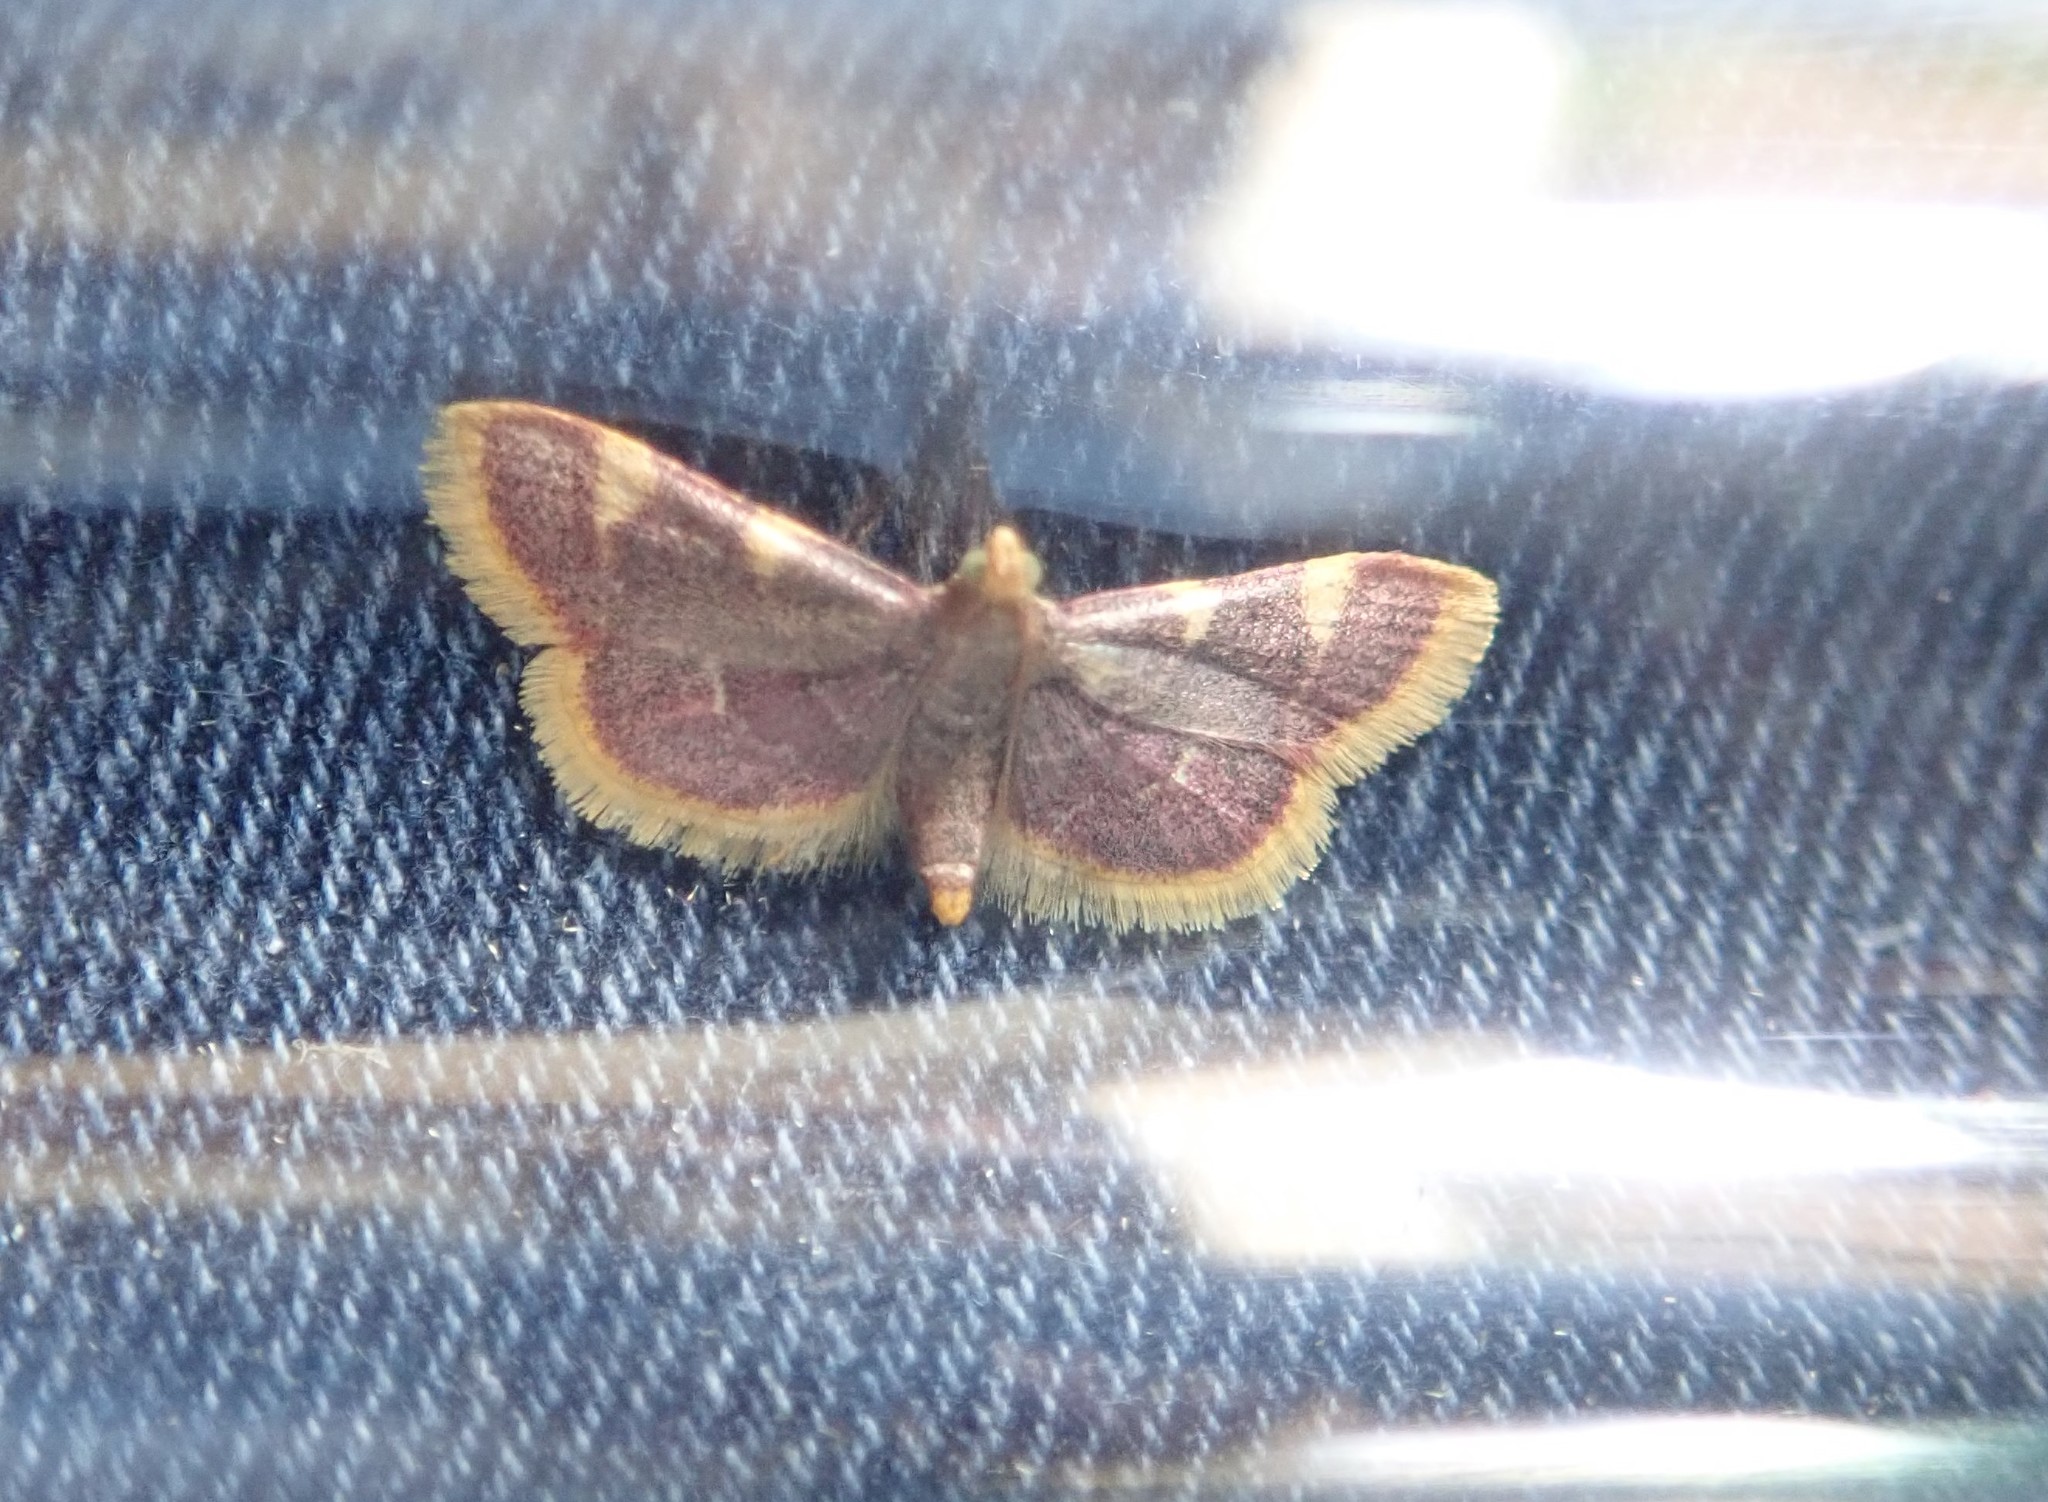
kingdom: Animalia
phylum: Arthropoda
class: Insecta
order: Lepidoptera
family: Pyralidae
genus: Hypsopygia
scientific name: Hypsopygia costalis
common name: Gold triangle
